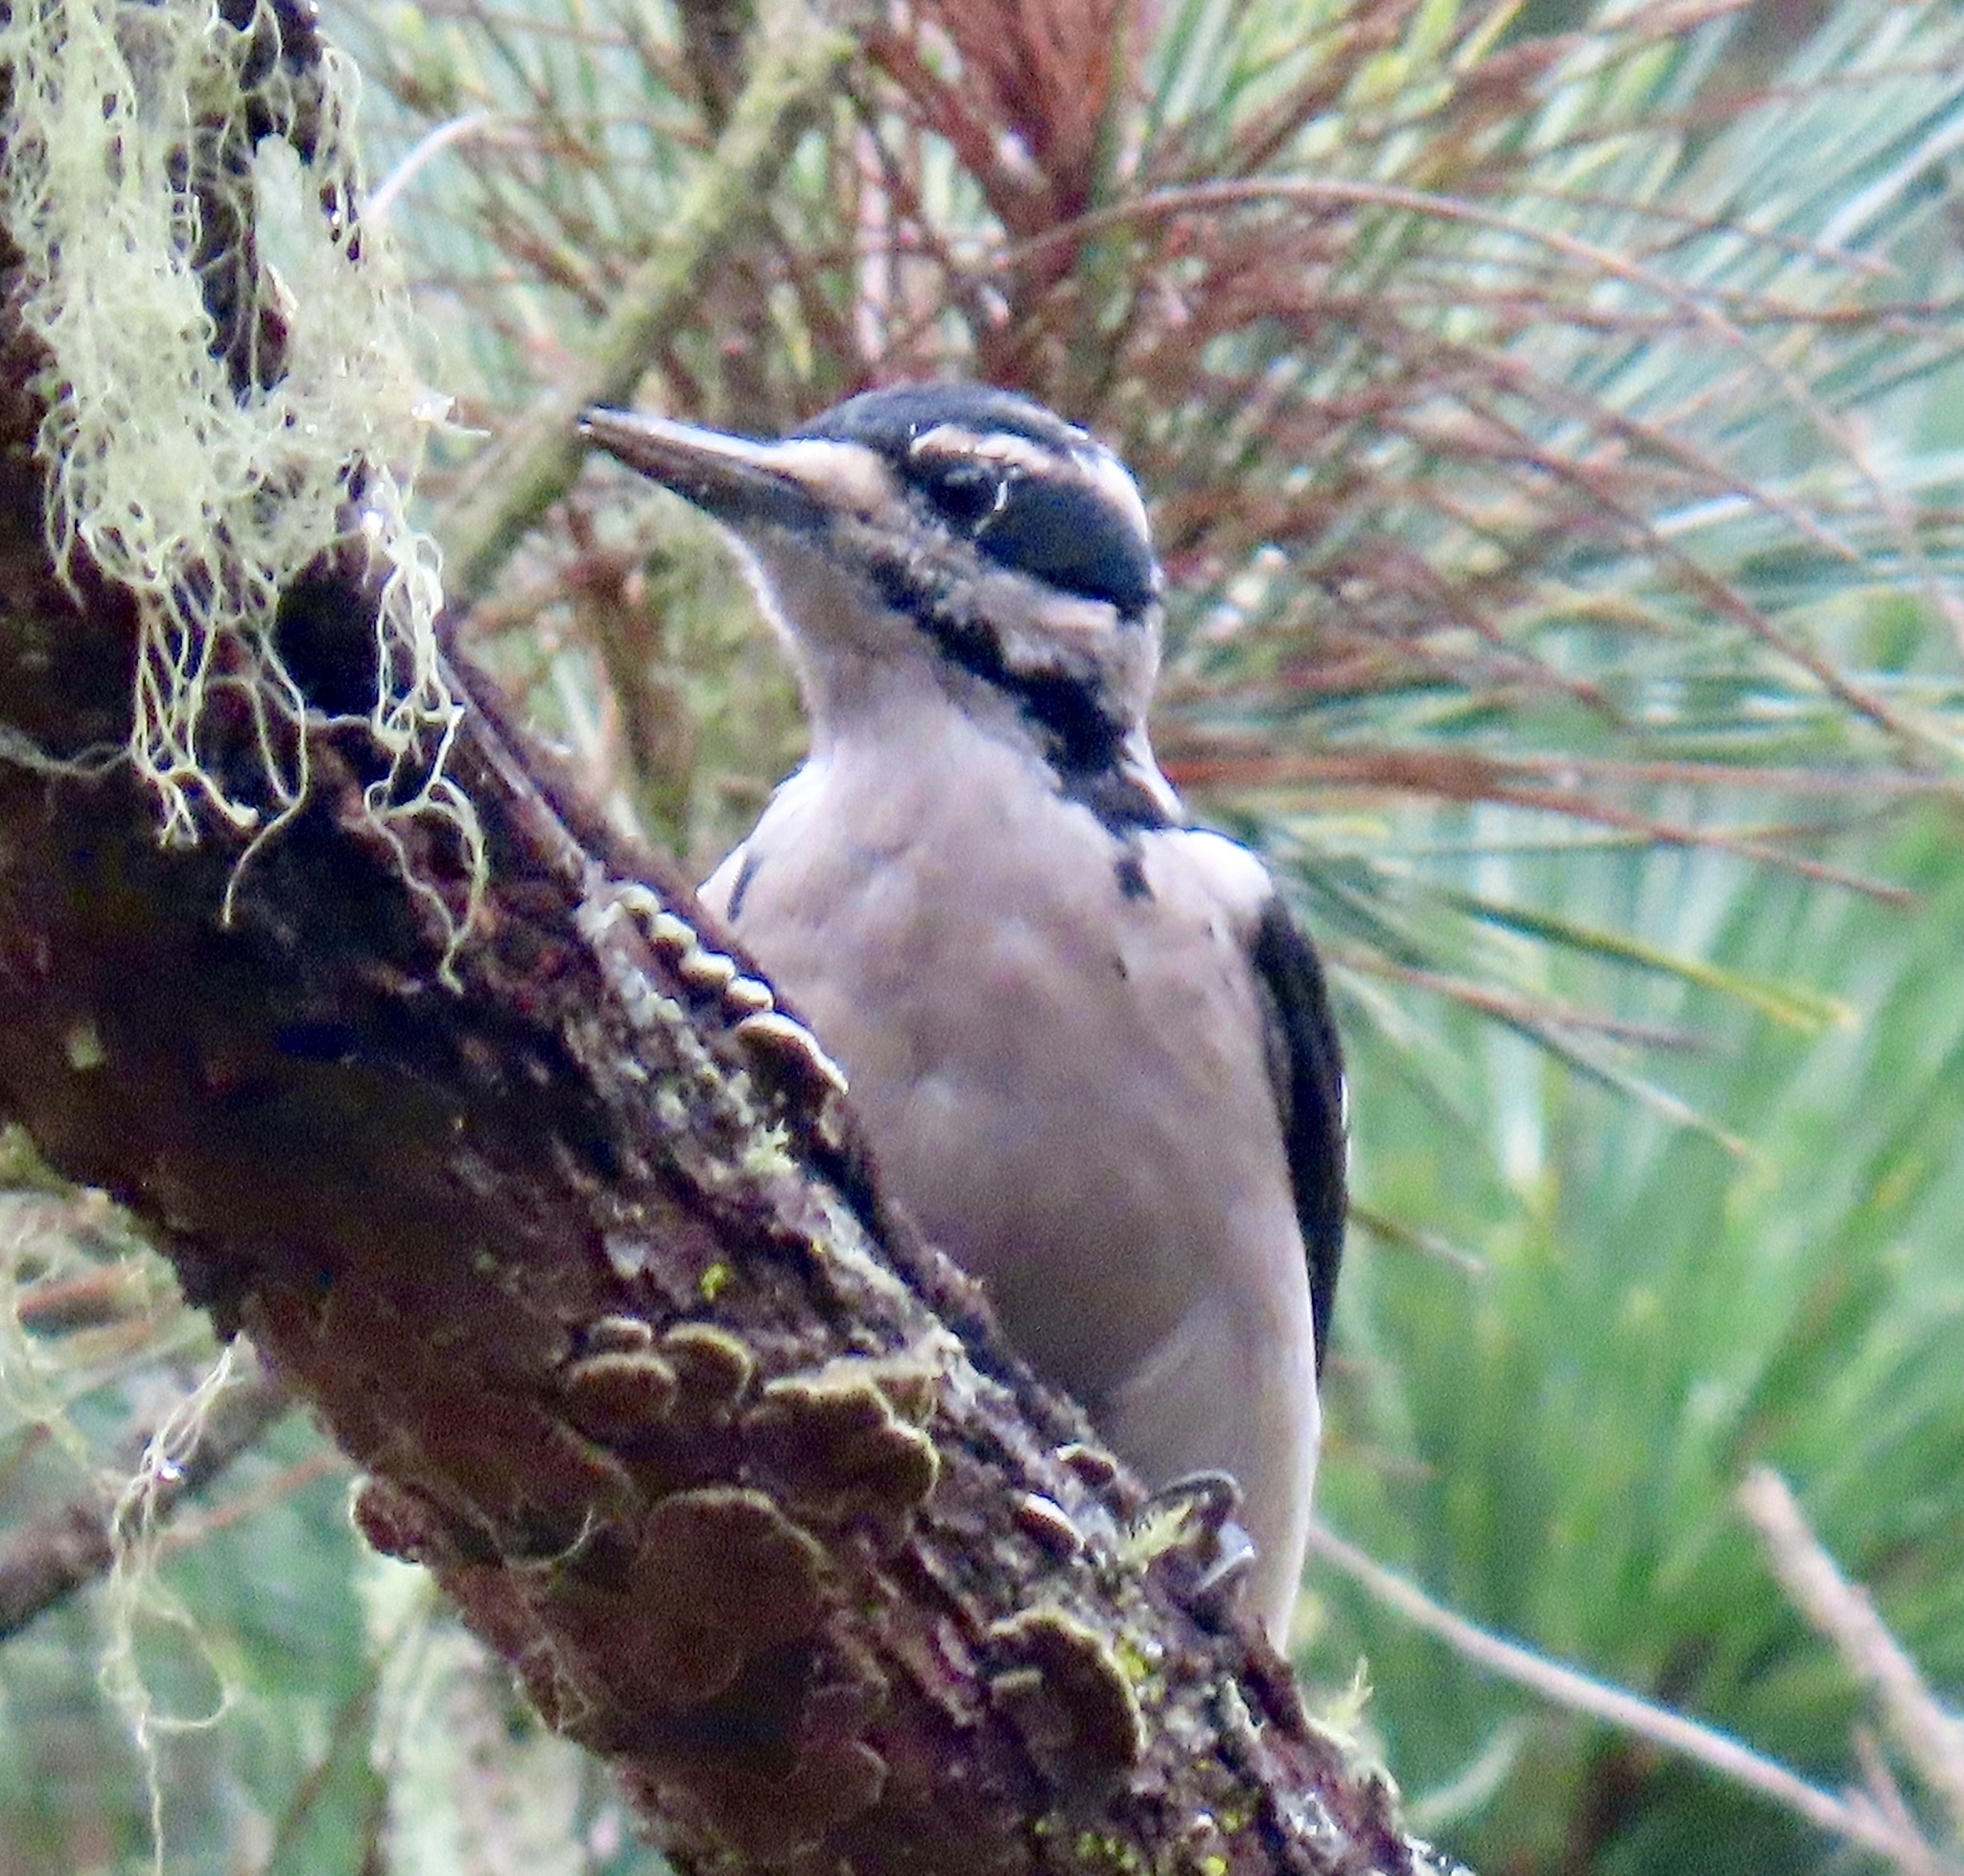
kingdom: Animalia
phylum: Chordata
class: Aves
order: Piciformes
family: Picidae
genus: Leuconotopicus
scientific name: Leuconotopicus villosus
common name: Hairy woodpecker
